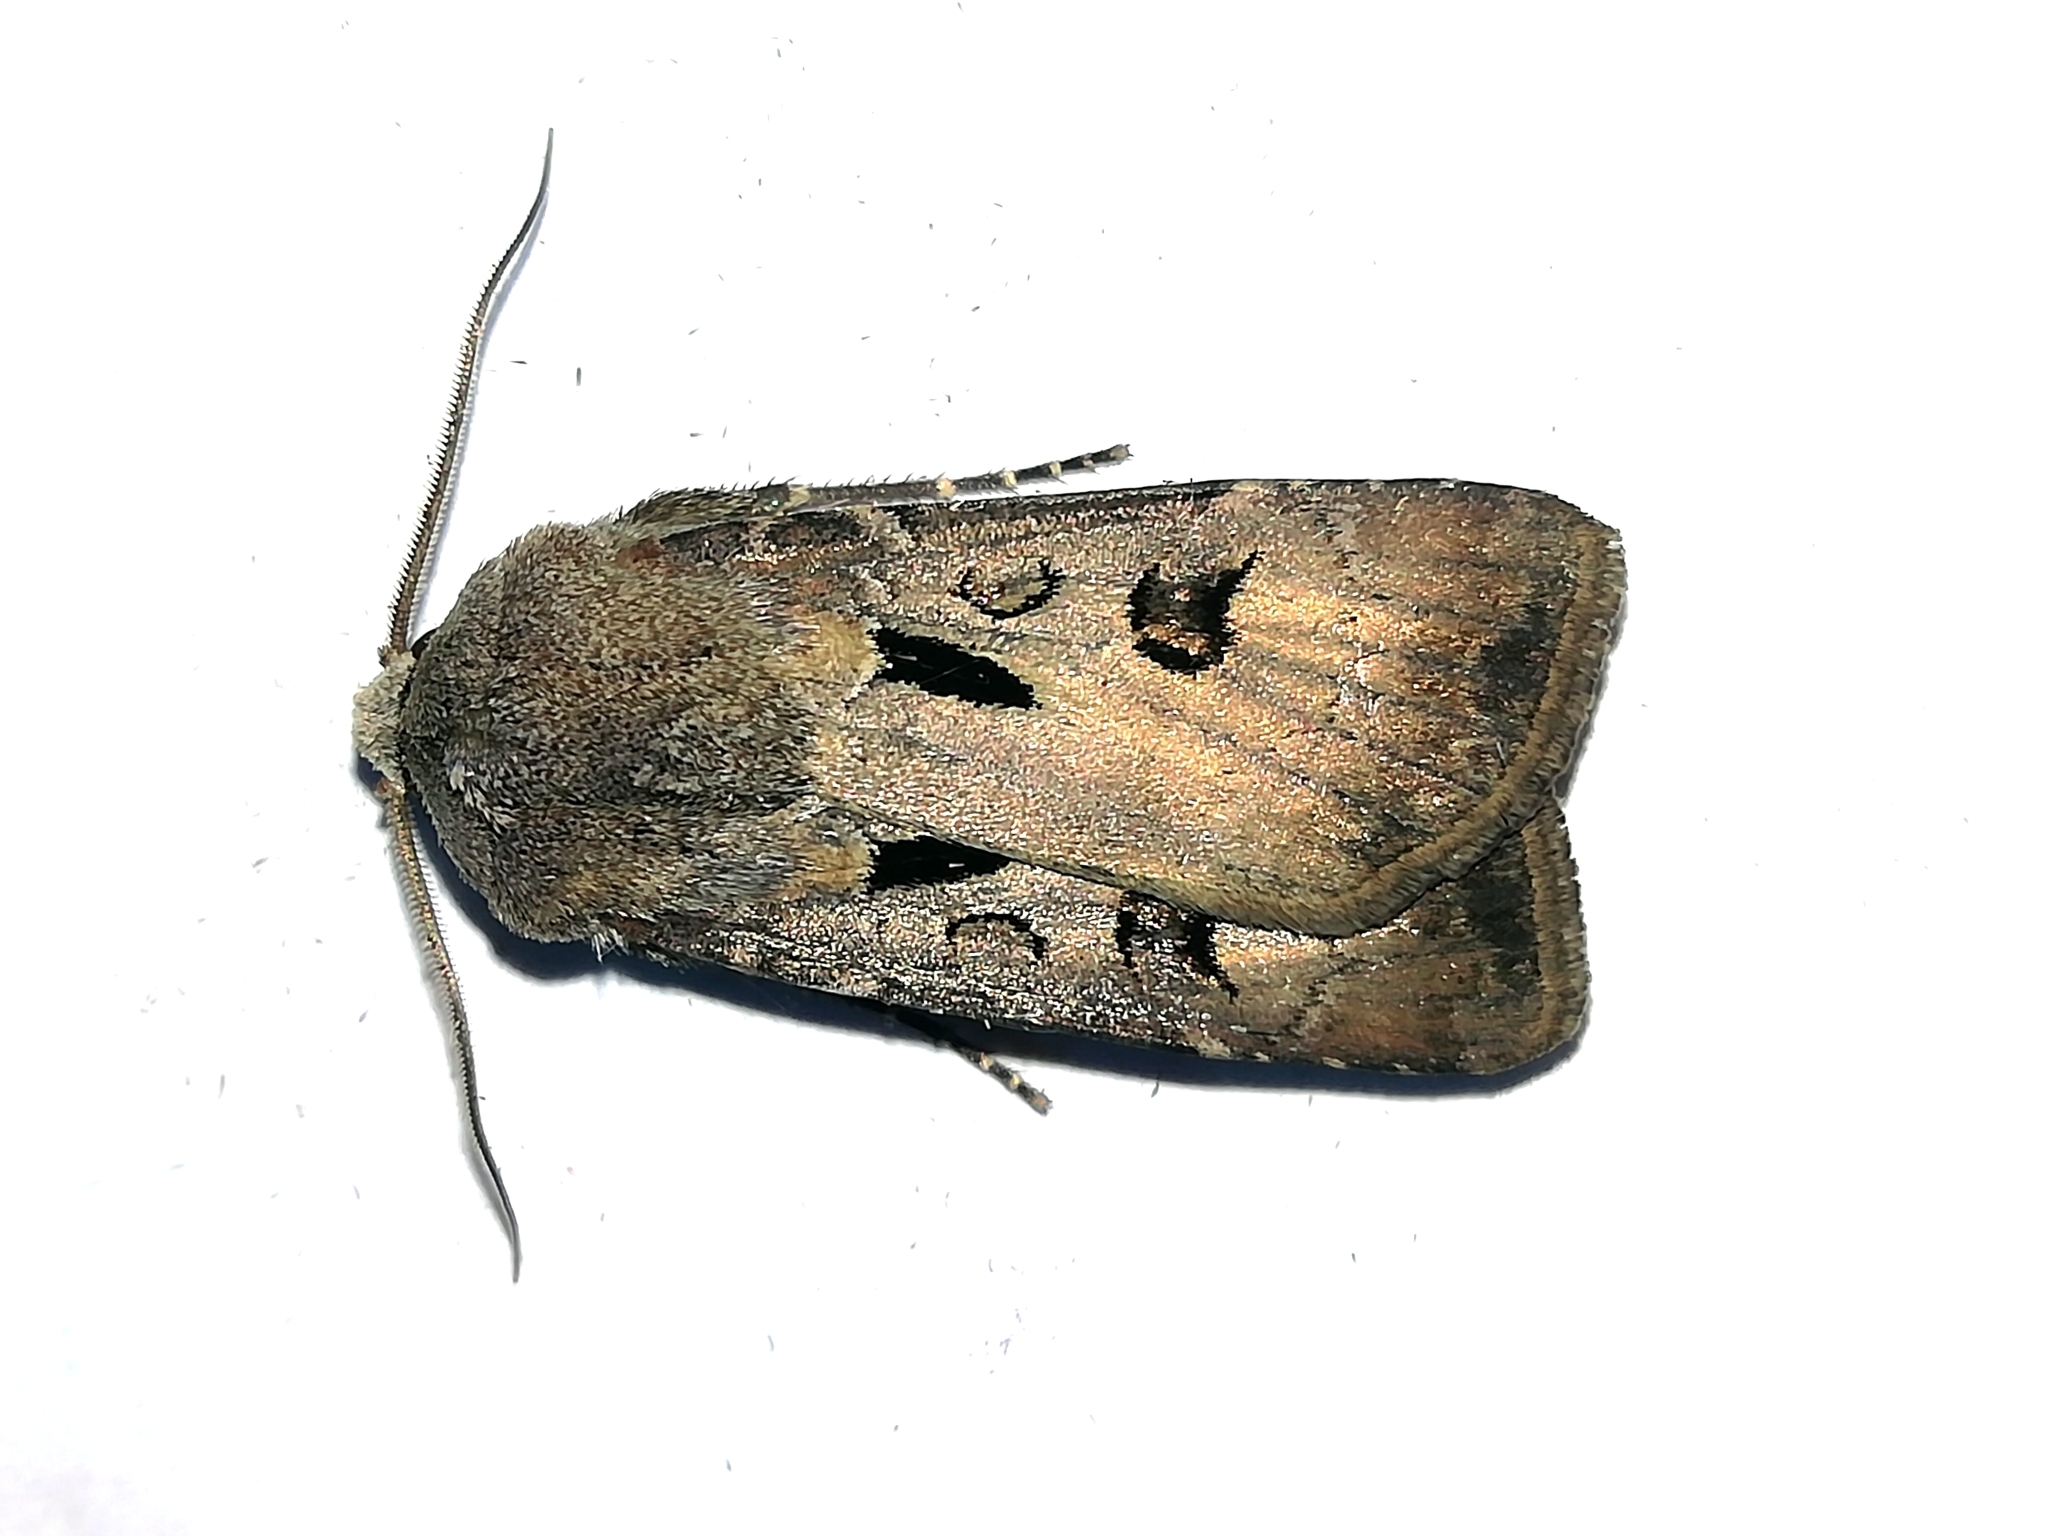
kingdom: Animalia
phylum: Arthropoda
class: Insecta
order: Lepidoptera
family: Noctuidae
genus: Agrotis
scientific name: Agrotis exclamationis
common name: Heart and dart
